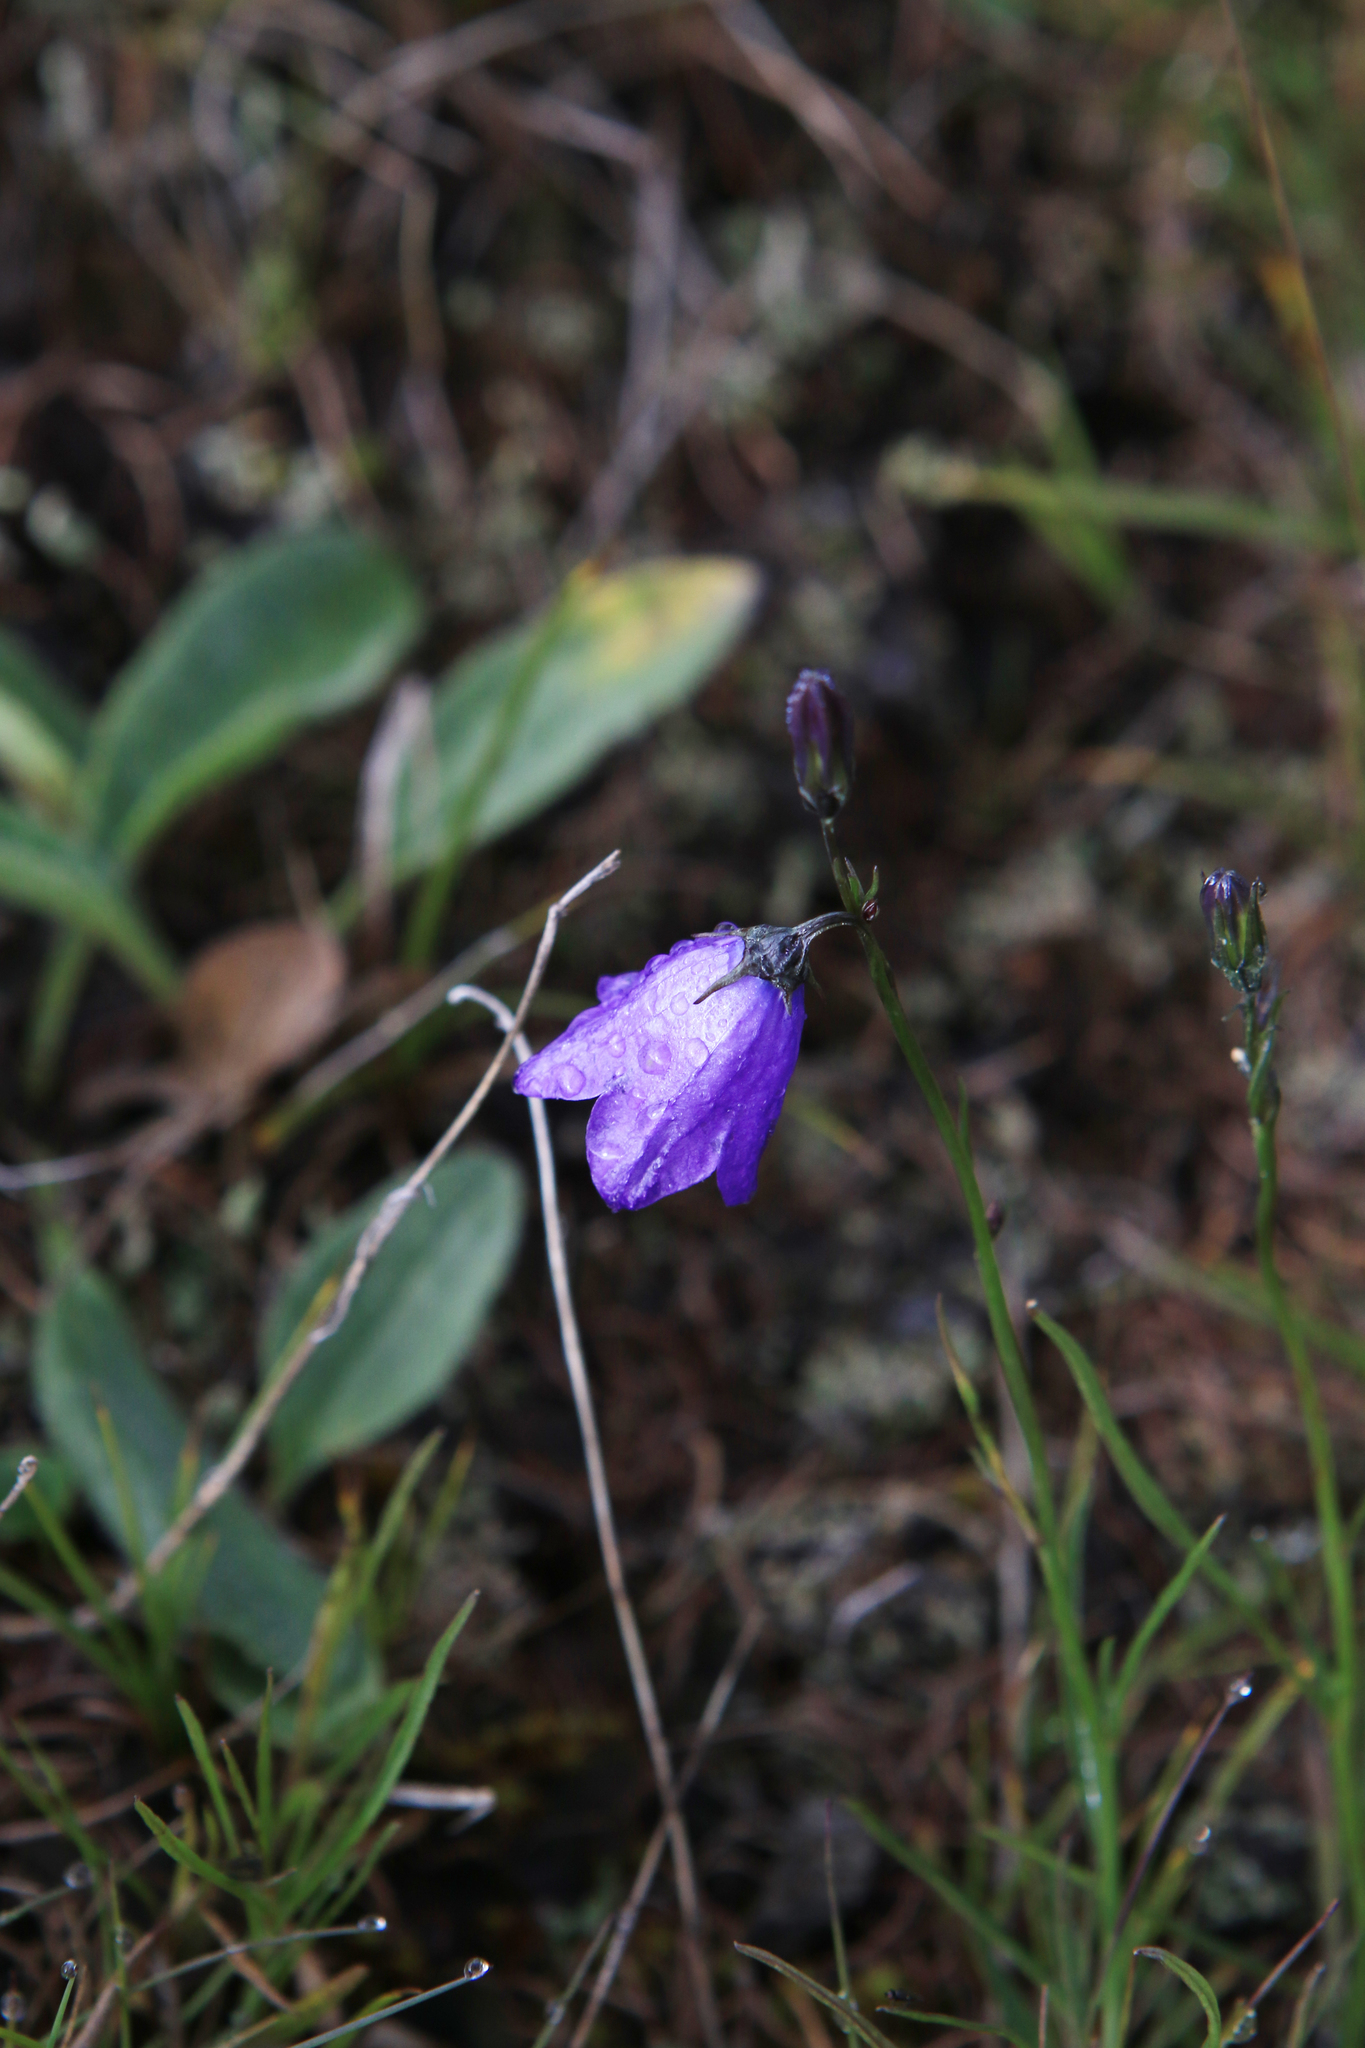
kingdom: Plantae
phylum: Tracheophyta
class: Magnoliopsida
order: Asterales
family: Campanulaceae
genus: Campanula
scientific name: Campanula rotundifolia
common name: Harebell
